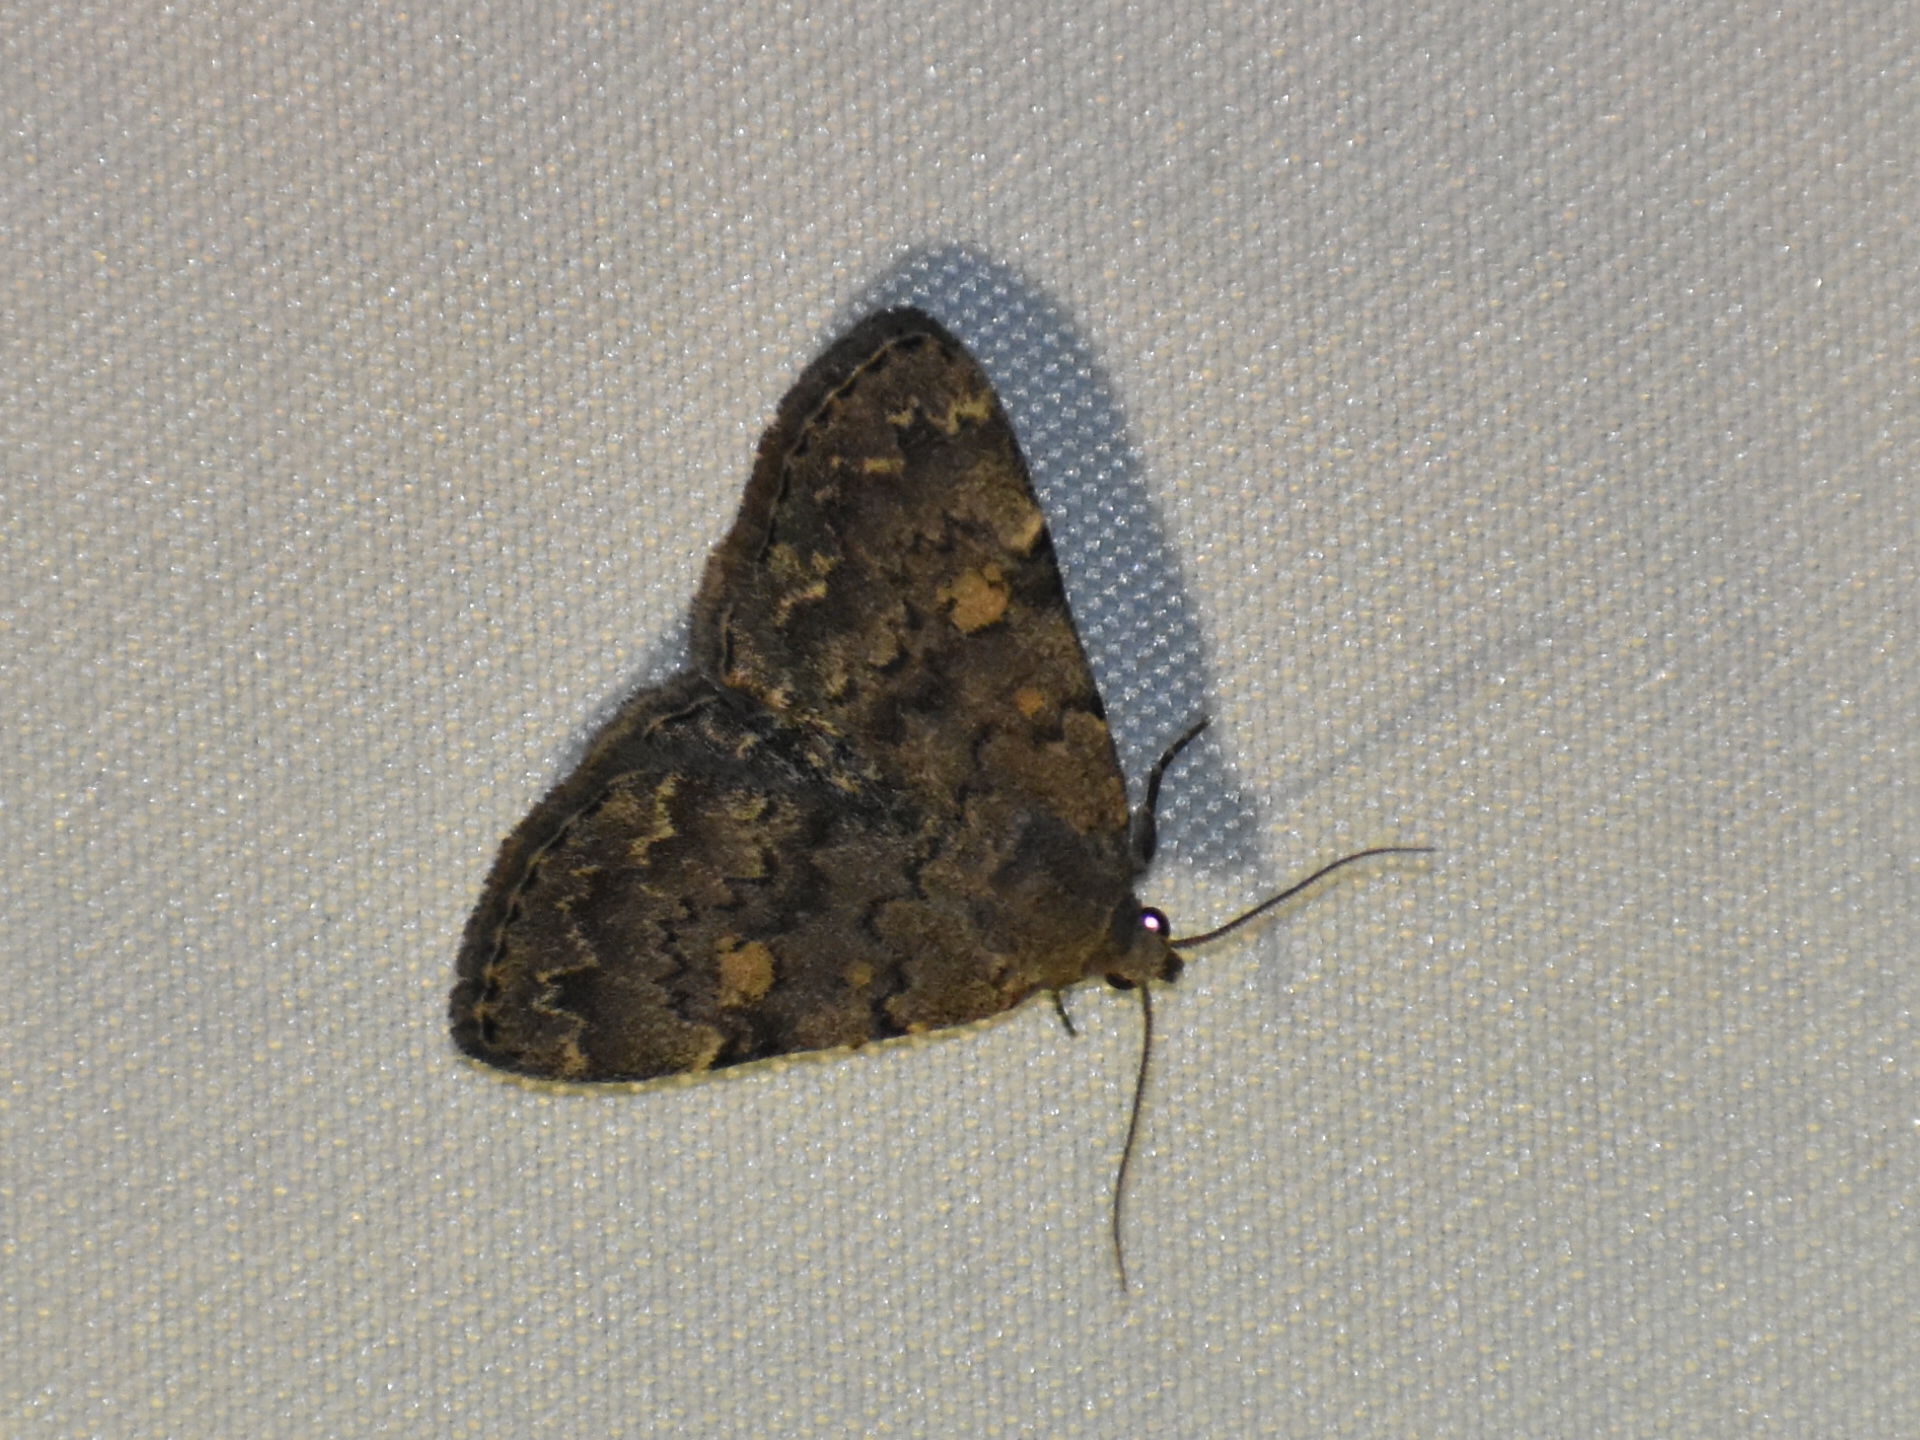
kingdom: Animalia
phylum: Arthropoda
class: Insecta
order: Lepidoptera
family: Erebidae
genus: Idia
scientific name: Idia aemula
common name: Common idia moth
